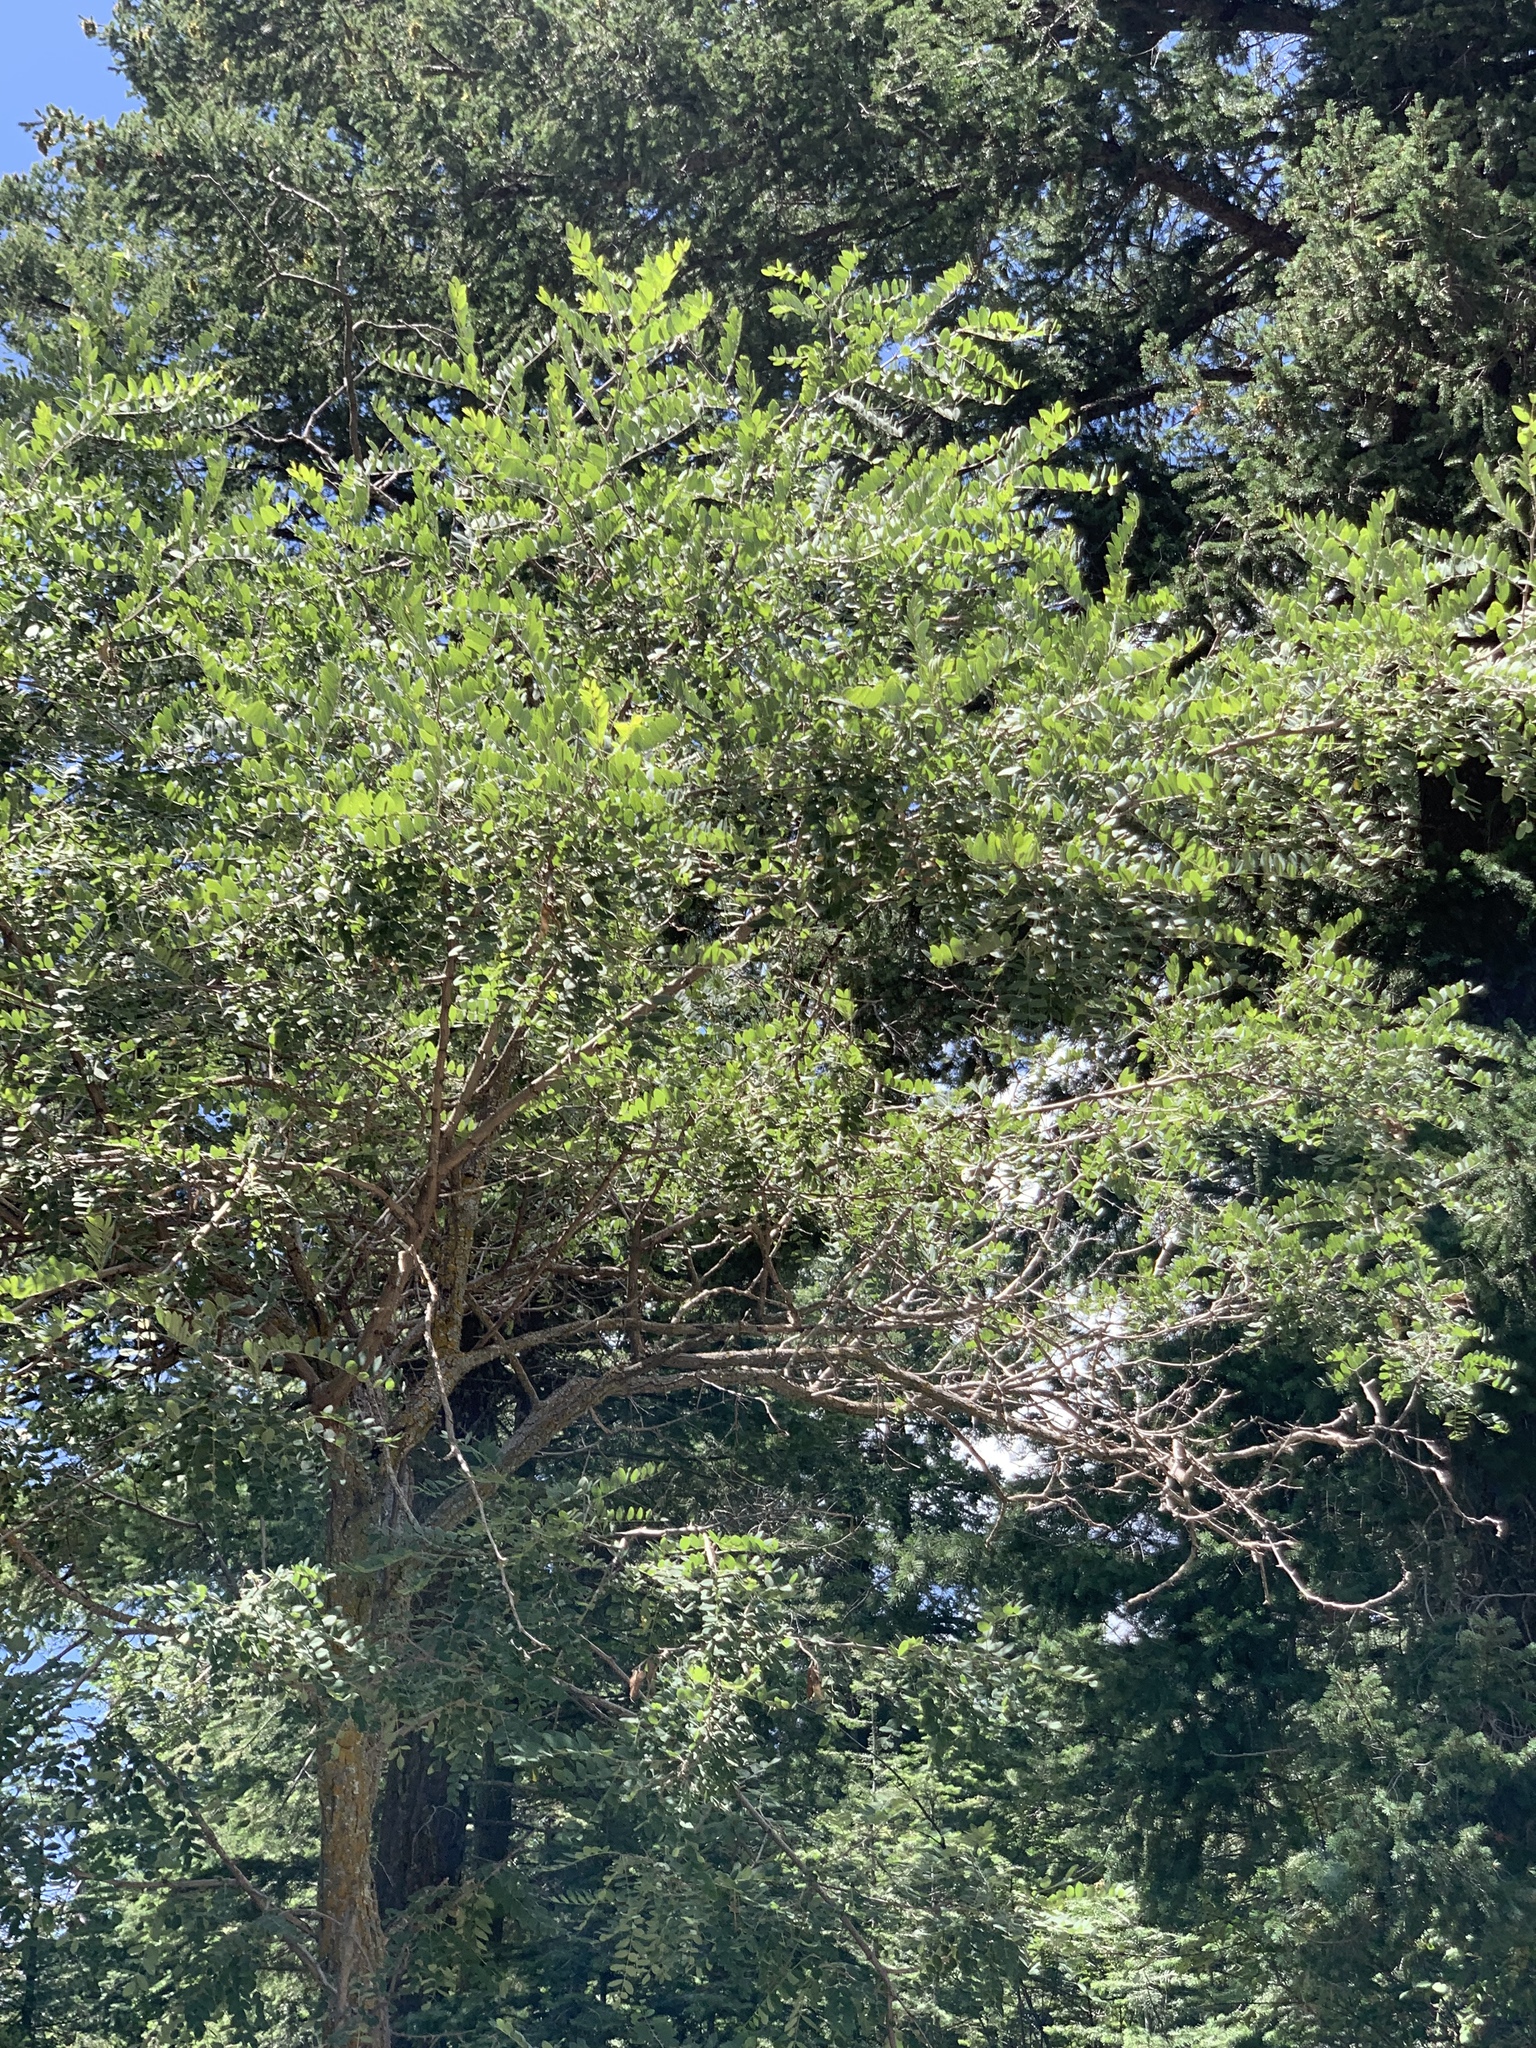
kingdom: Plantae
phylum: Tracheophyta
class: Magnoliopsida
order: Fabales
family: Fabaceae
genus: Robinia
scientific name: Robinia neomexicana
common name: New mexico locust
